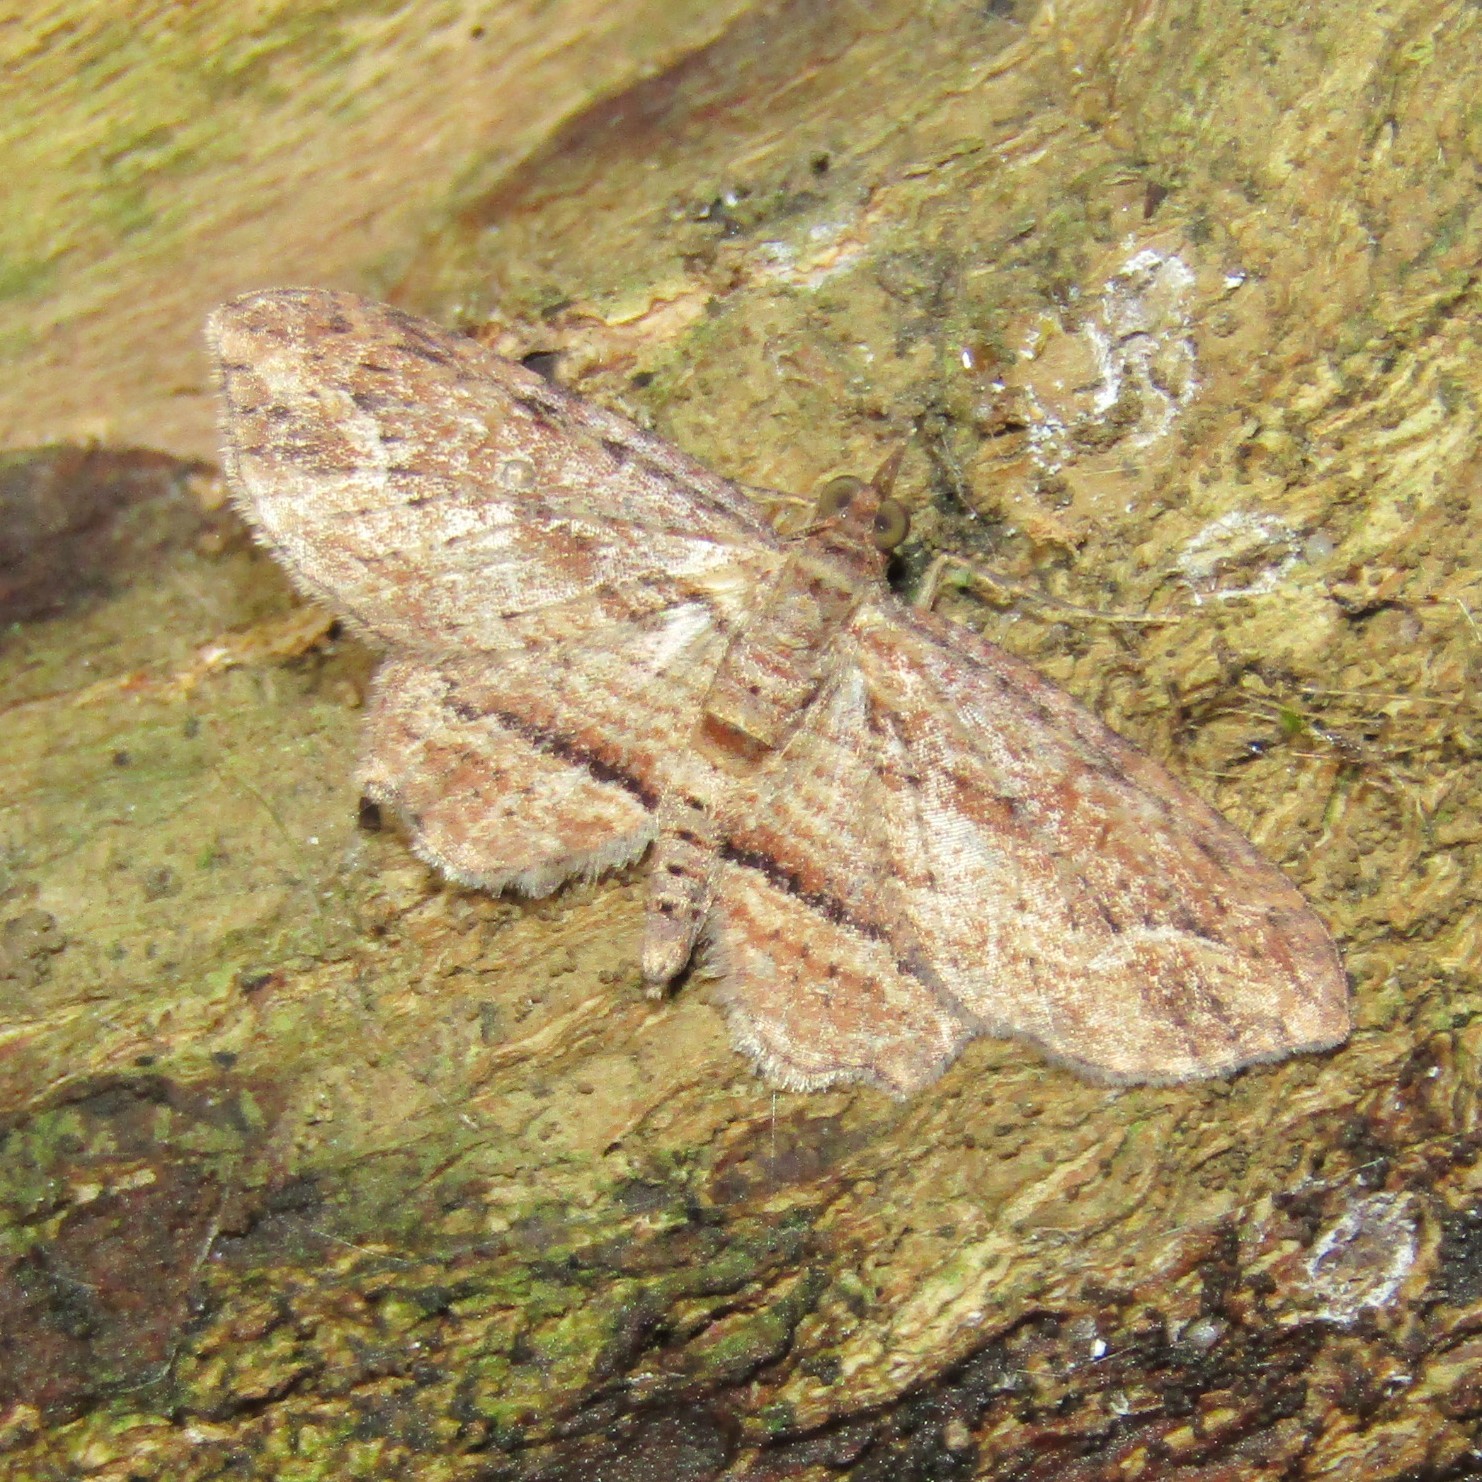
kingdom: Animalia
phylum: Arthropoda
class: Insecta
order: Lepidoptera
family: Geometridae
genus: Chloroclystis
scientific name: Chloroclystis filata
